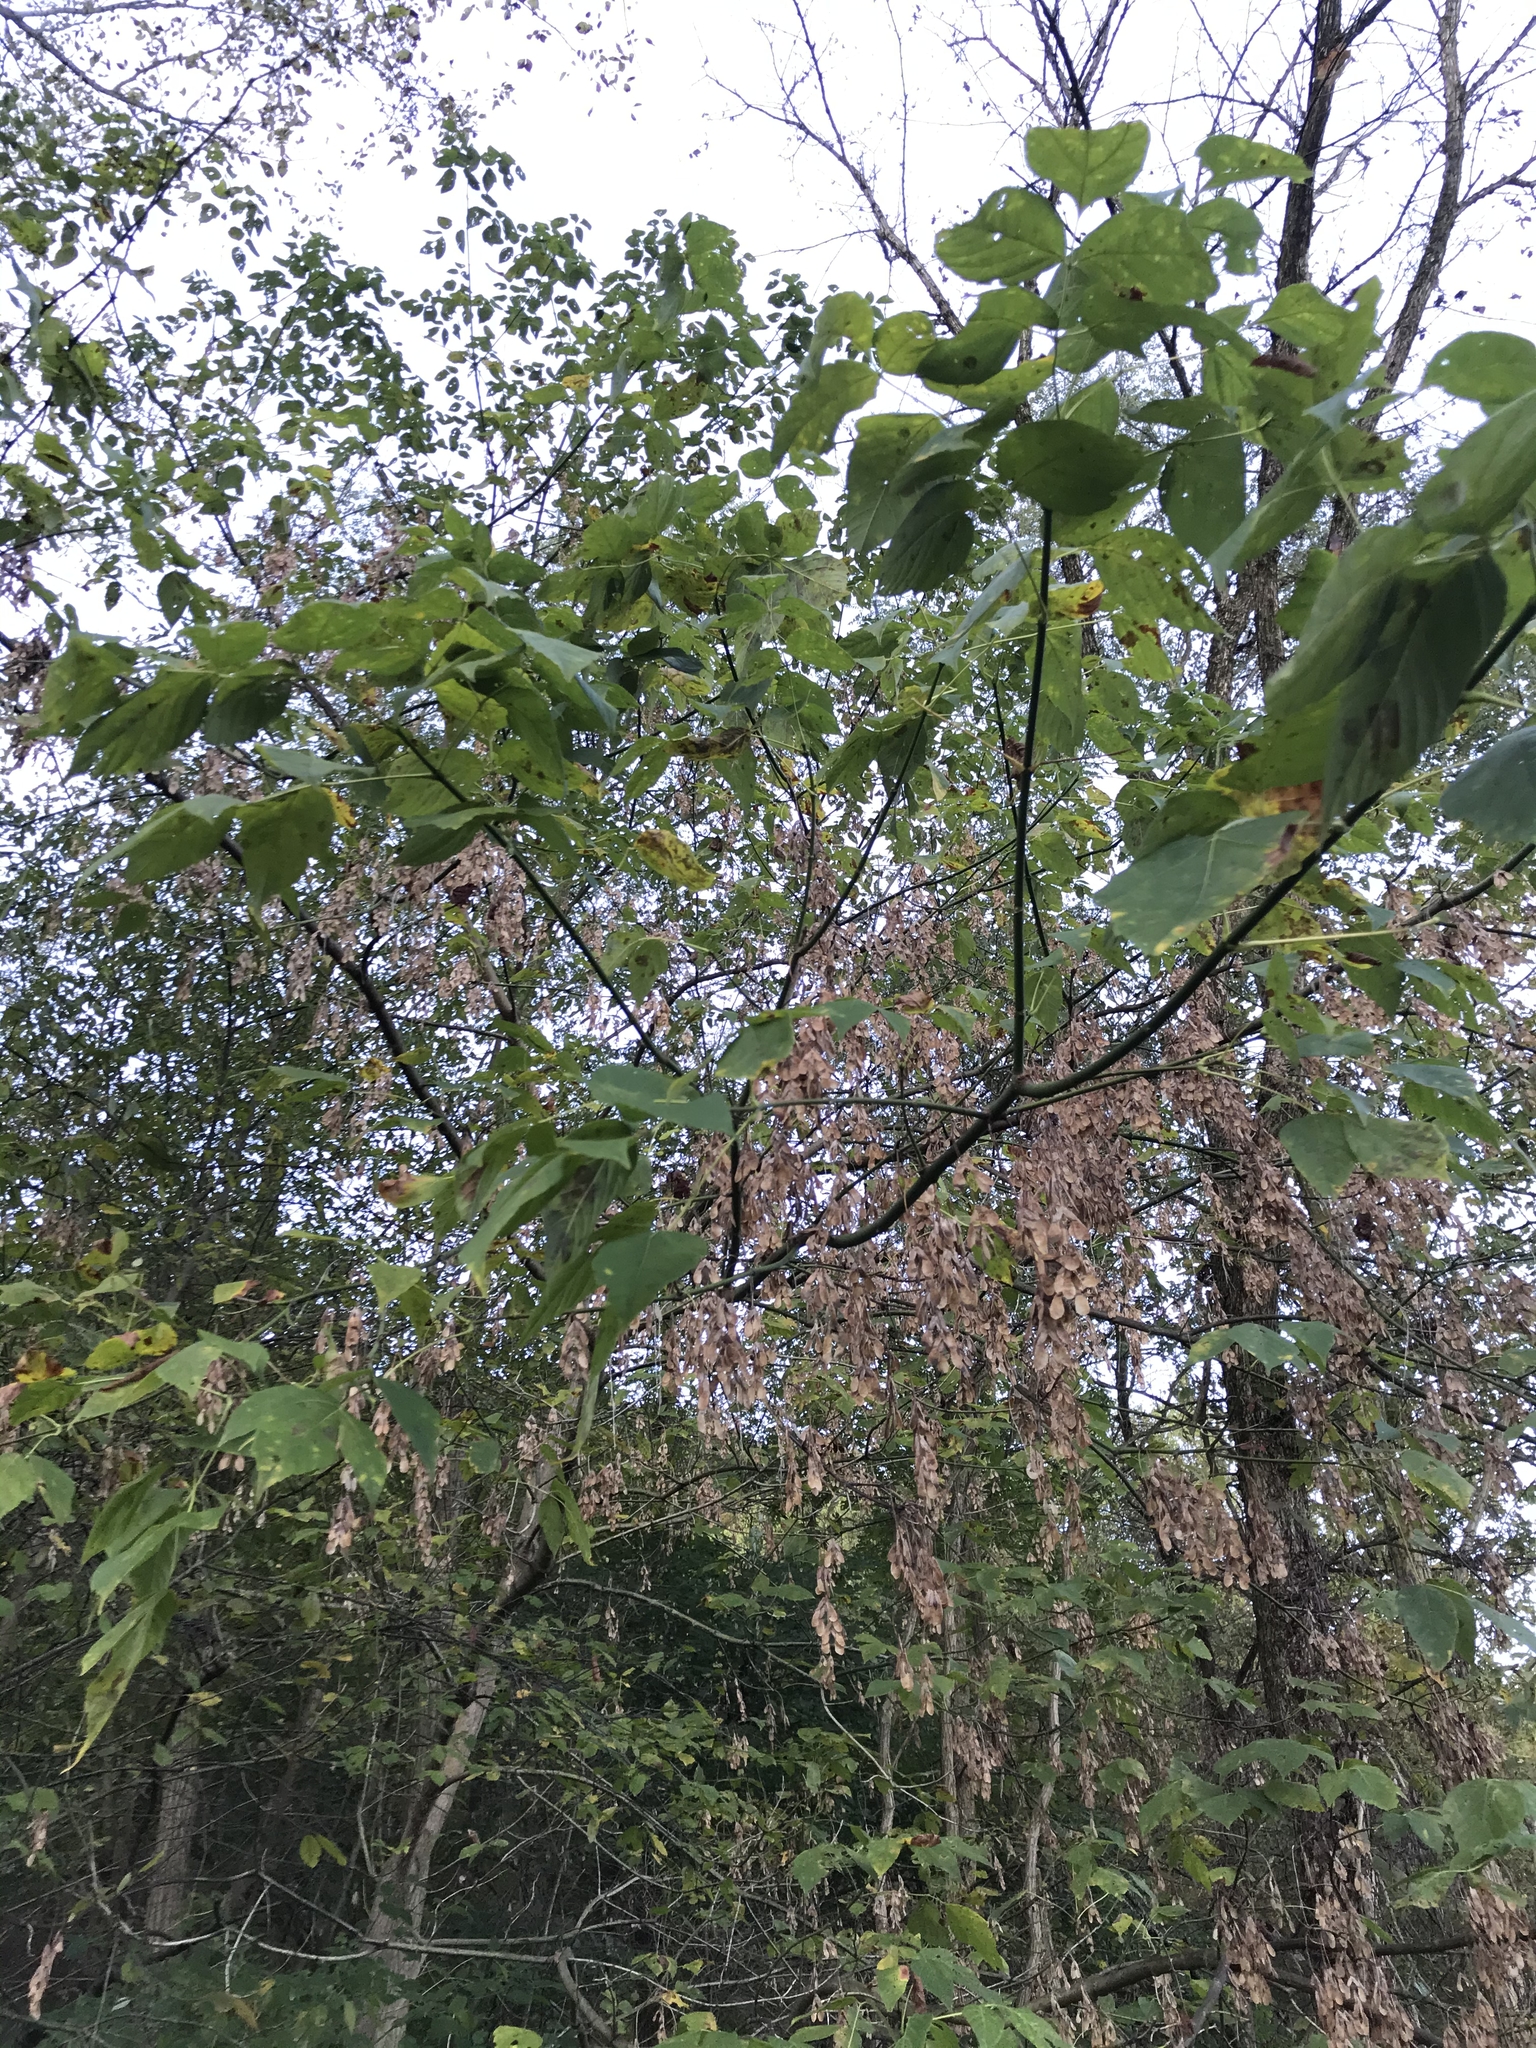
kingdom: Plantae
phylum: Tracheophyta
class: Magnoliopsida
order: Sapindales
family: Sapindaceae
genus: Acer
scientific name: Acer negundo
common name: Ashleaf maple
